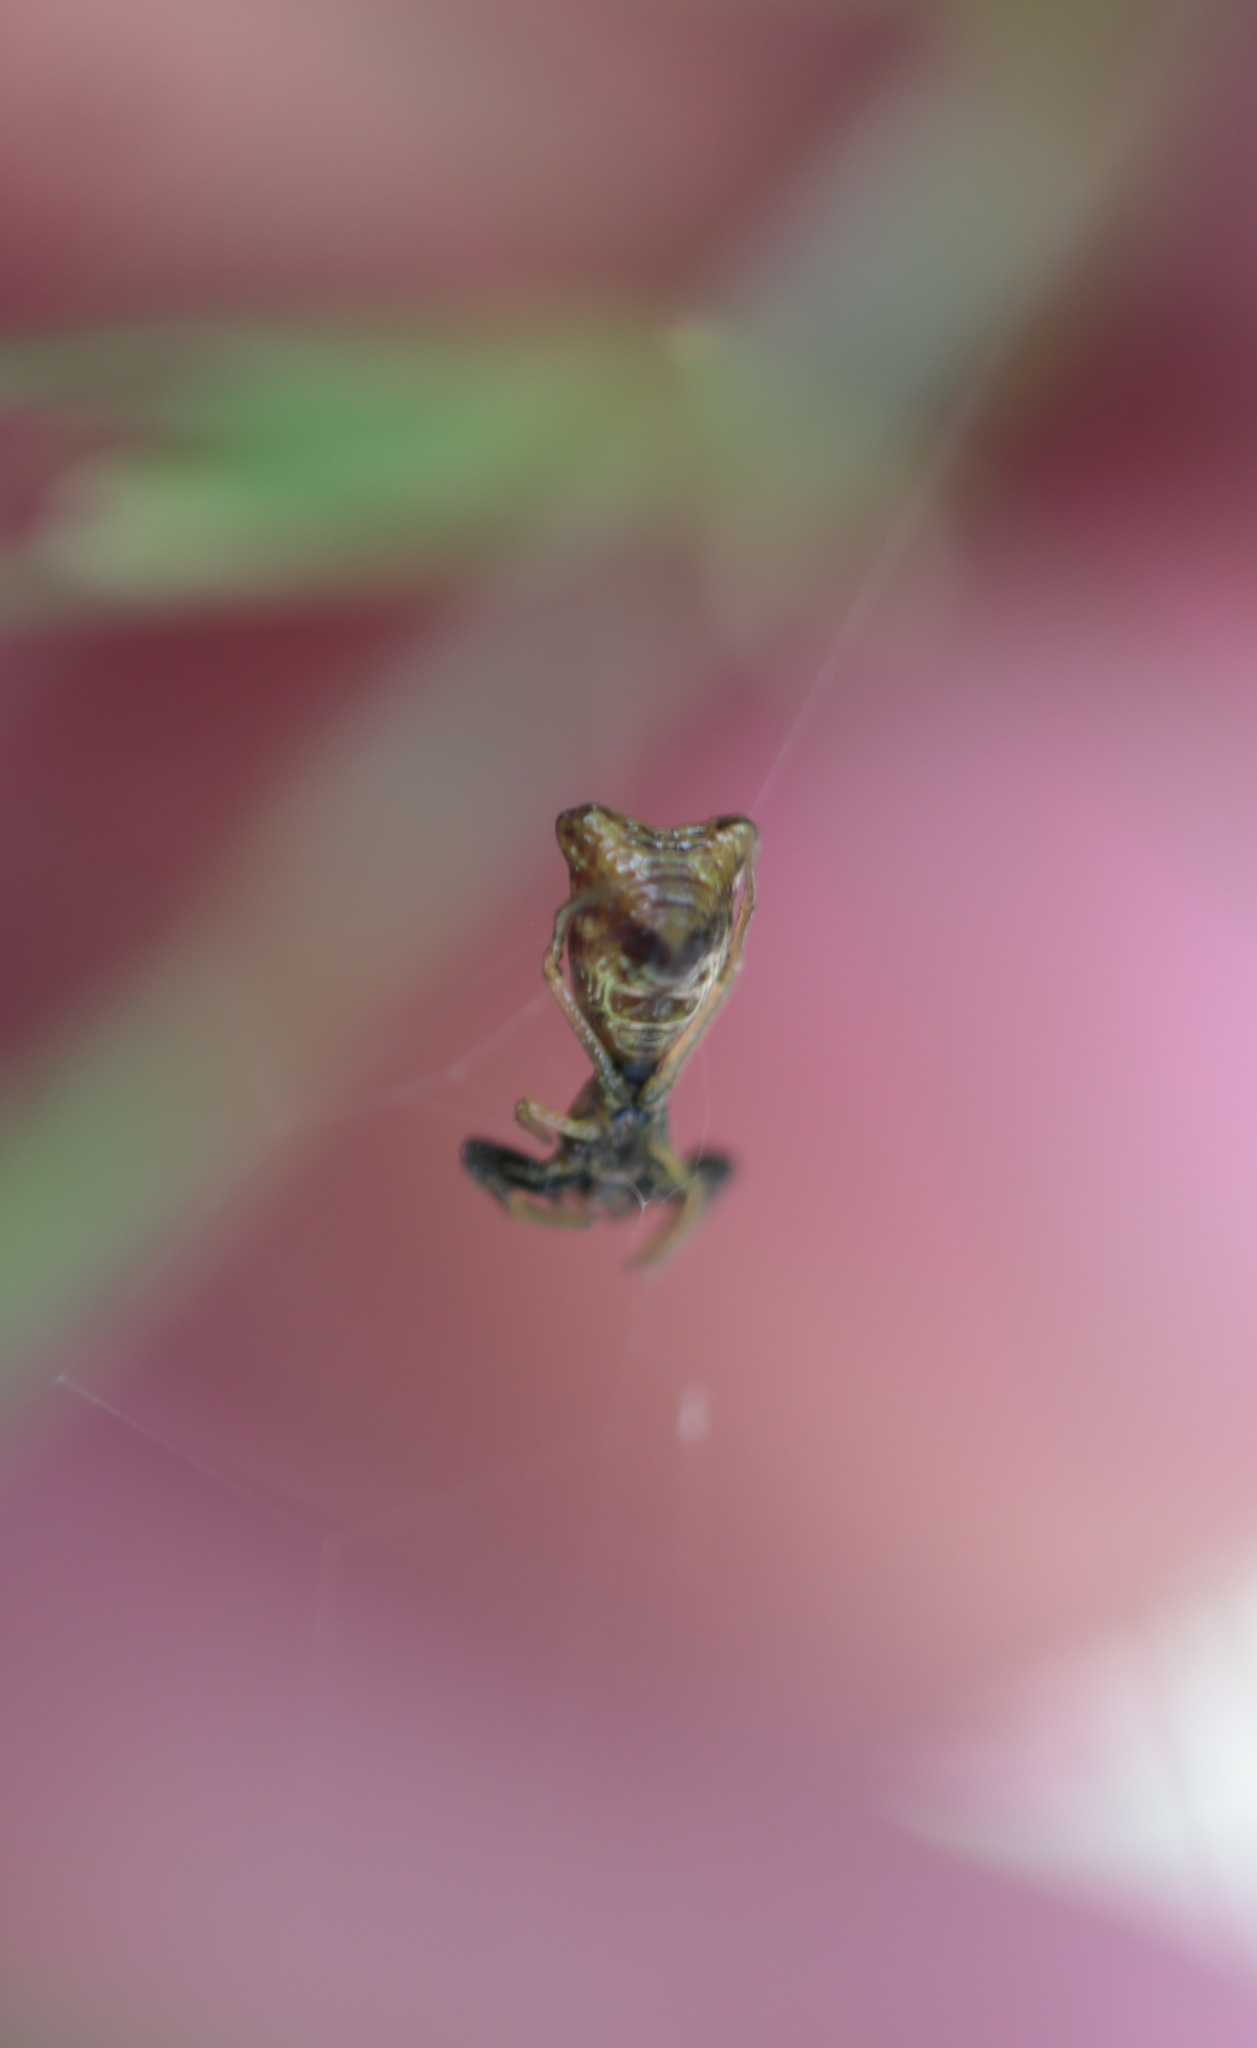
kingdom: Animalia
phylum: Arthropoda
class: Arachnida
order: Araneae
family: Araneidae
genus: Micrathena
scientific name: Micrathena sagittata
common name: Orb weavers
